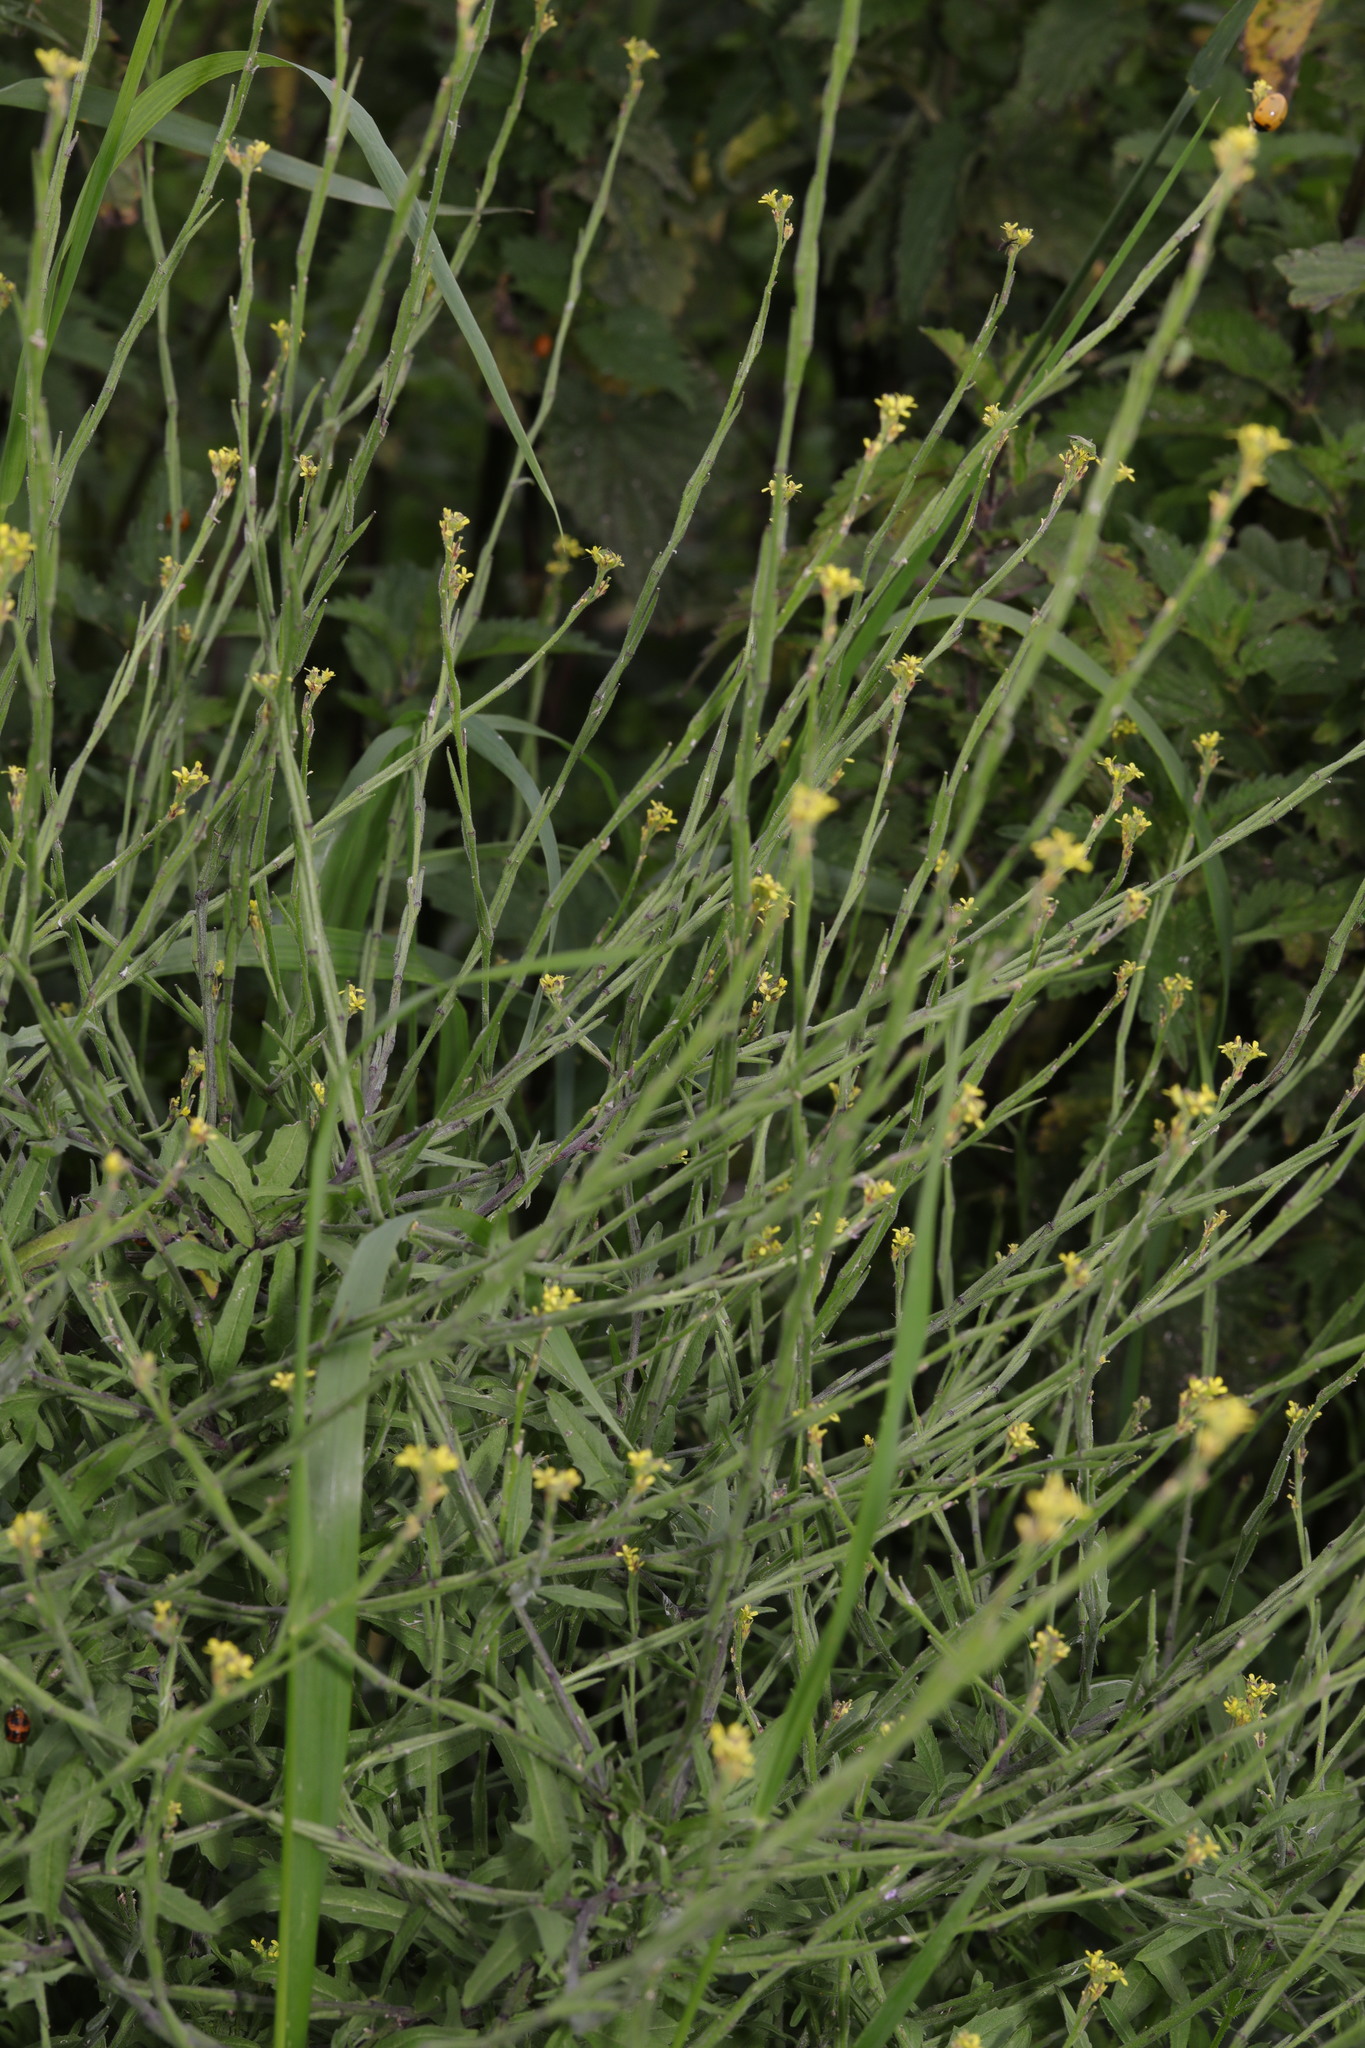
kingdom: Plantae
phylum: Tracheophyta
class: Magnoliopsida
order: Brassicales
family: Brassicaceae
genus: Sisymbrium
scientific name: Sisymbrium officinale
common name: Hedge mustard
